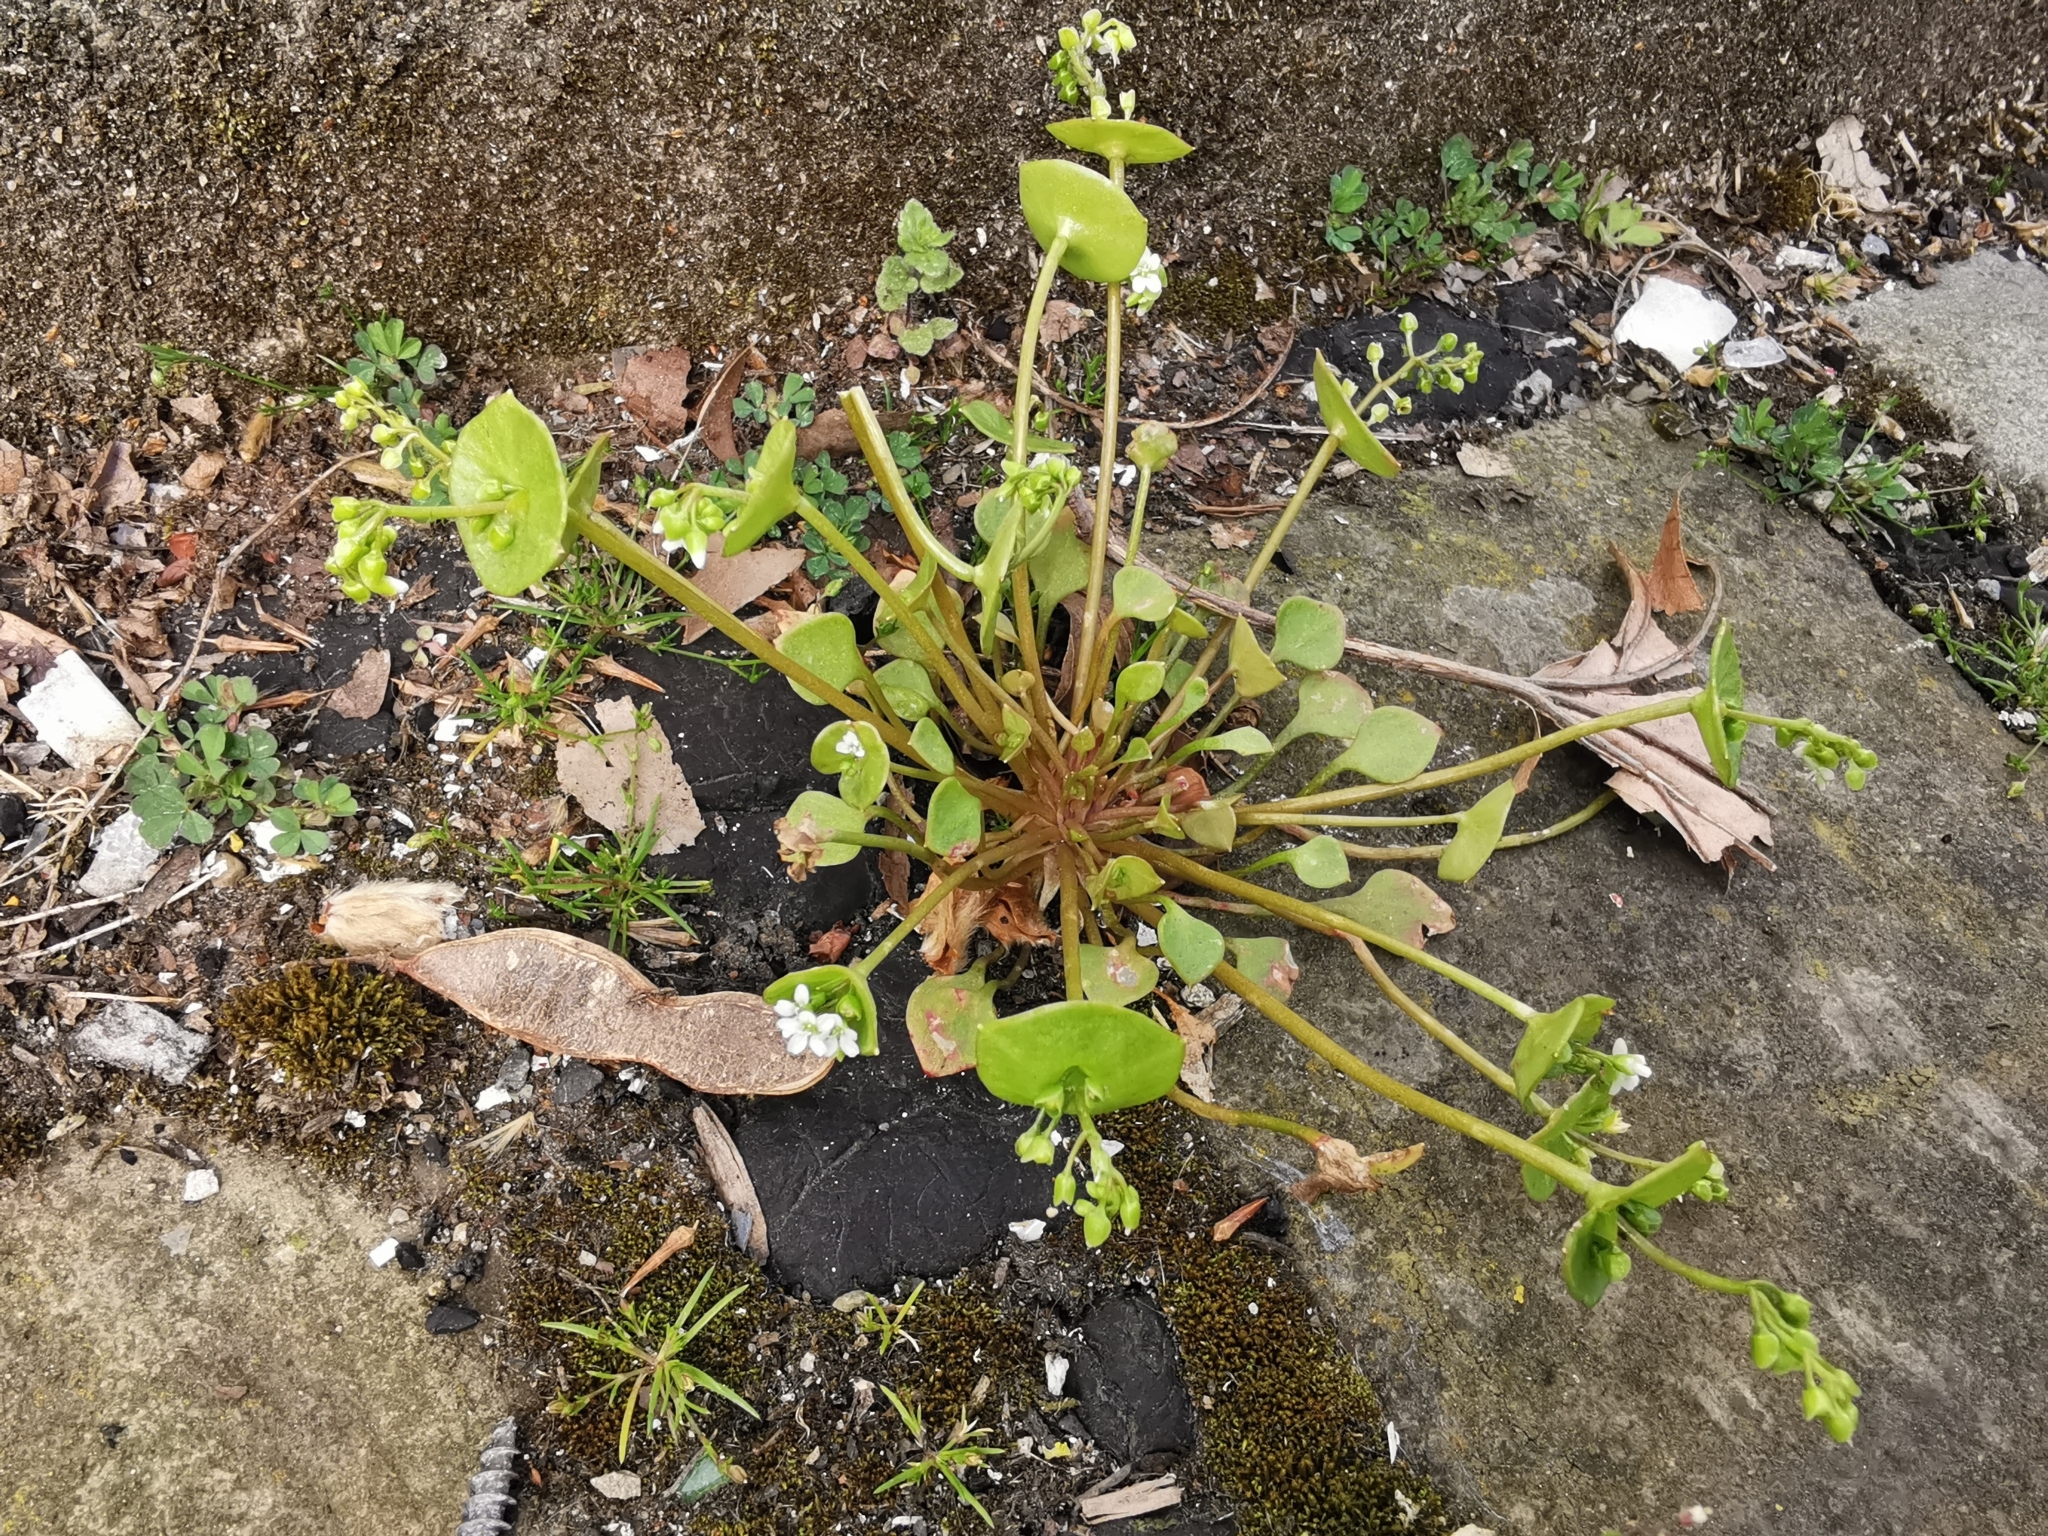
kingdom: Plantae
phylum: Tracheophyta
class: Magnoliopsida
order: Caryophyllales
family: Montiaceae
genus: Claytonia
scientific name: Claytonia perfoliata
